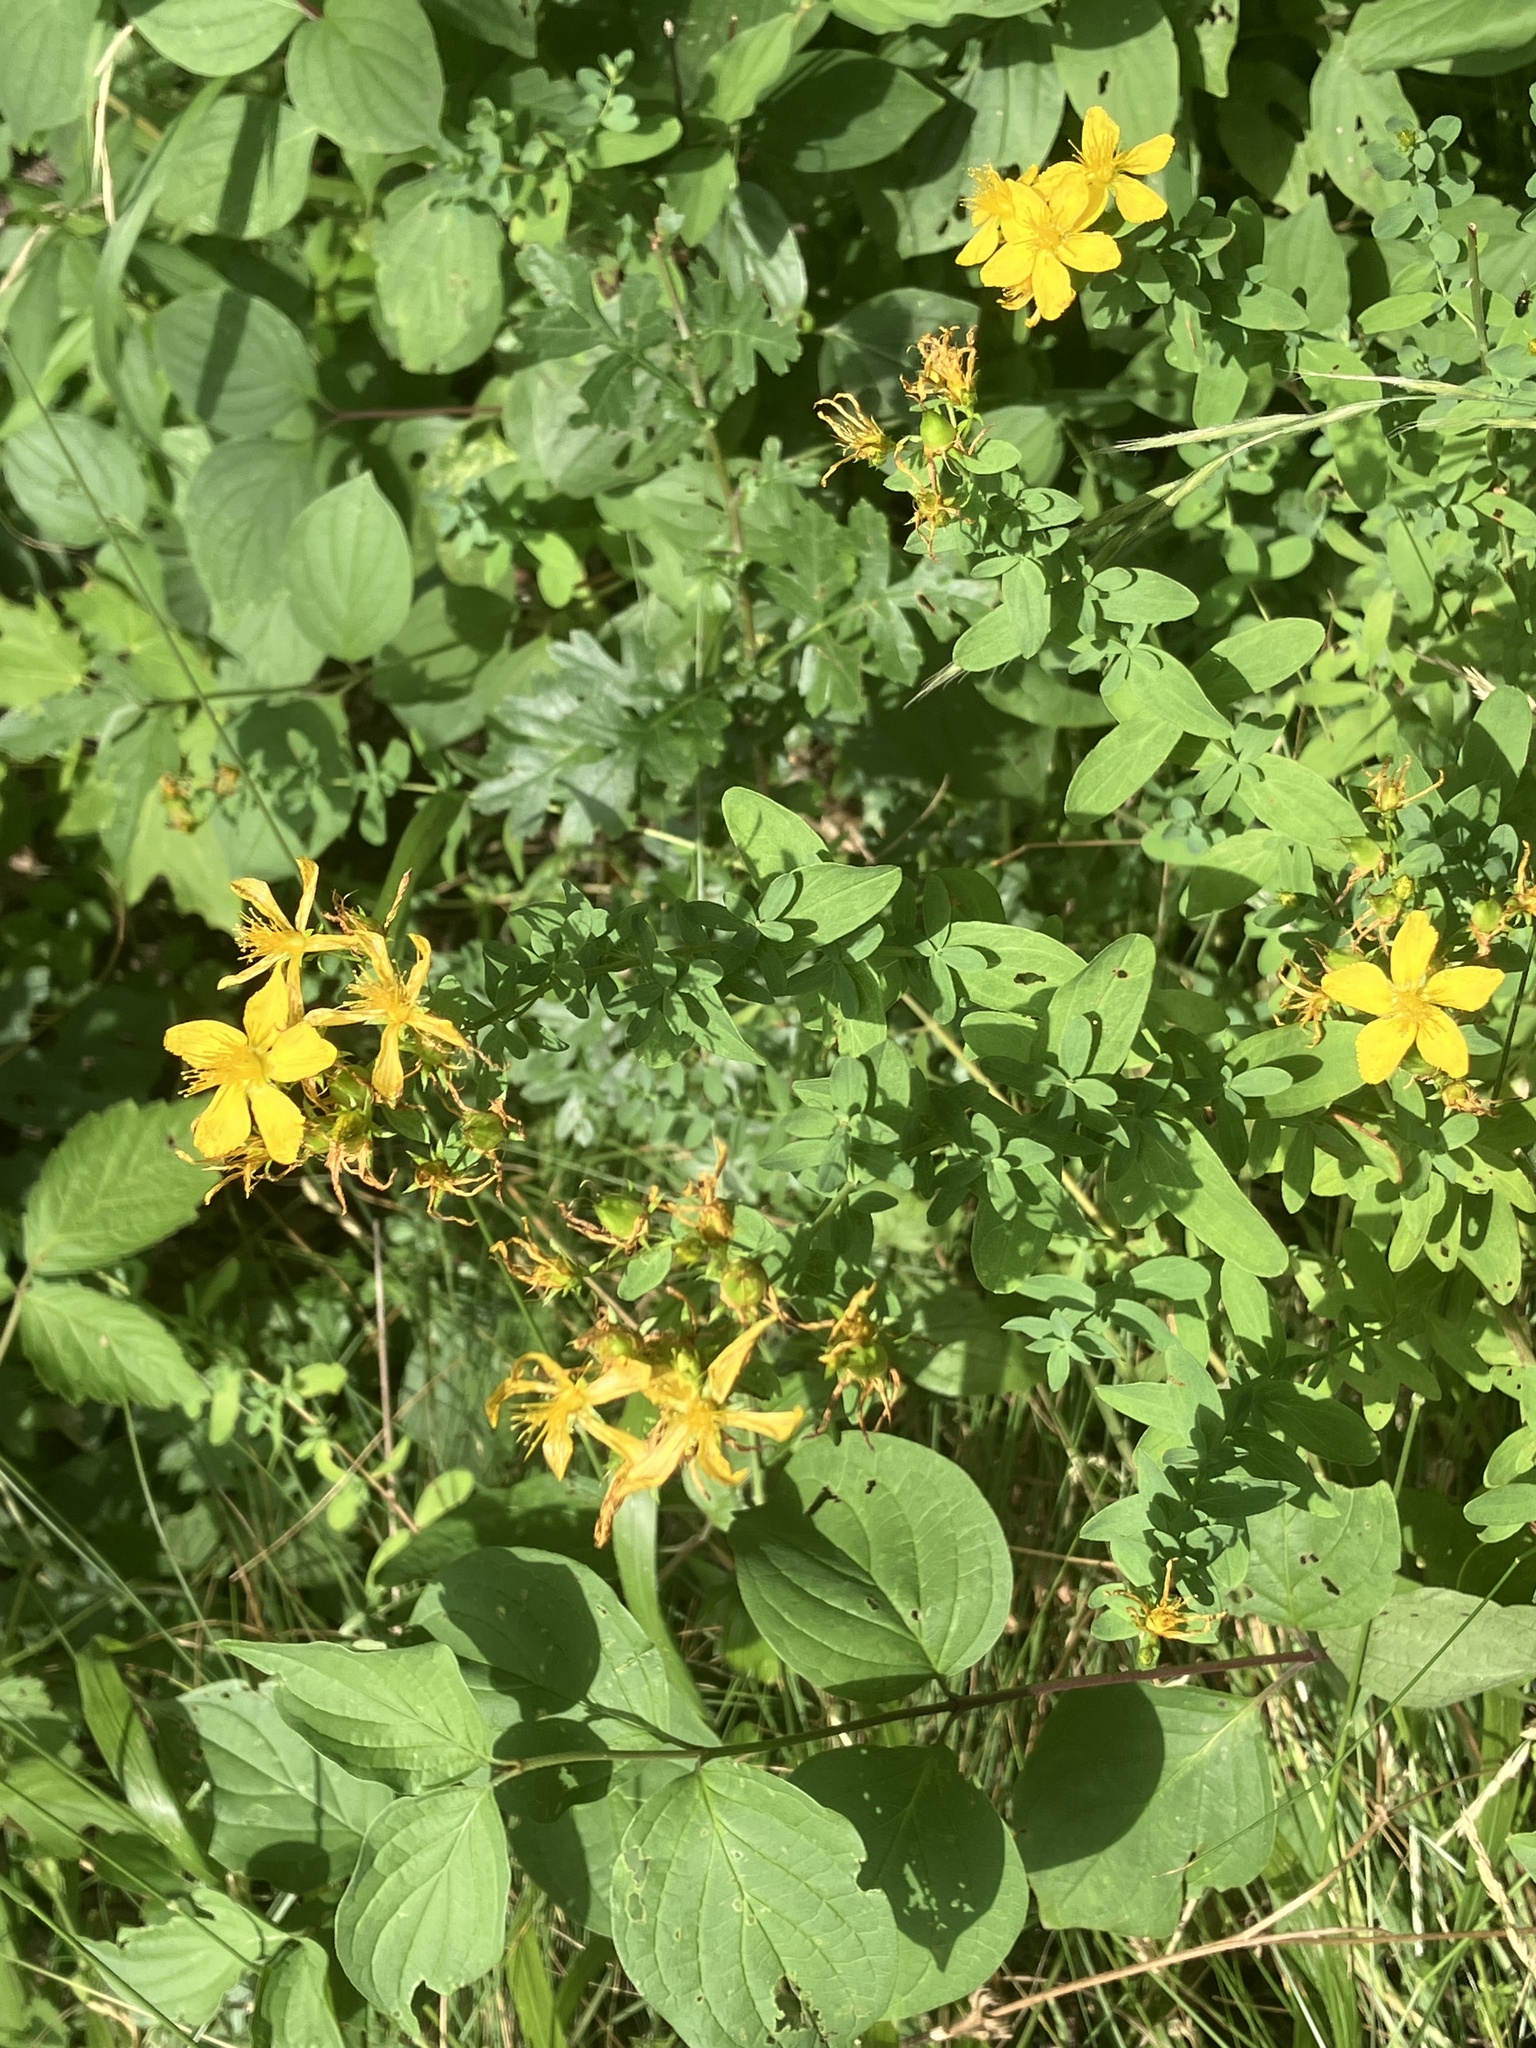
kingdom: Plantae
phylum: Tracheophyta
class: Magnoliopsida
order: Malpighiales
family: Hypericaceae
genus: Hypericum
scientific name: Hypericum perforatum
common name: Common st. johnswort
